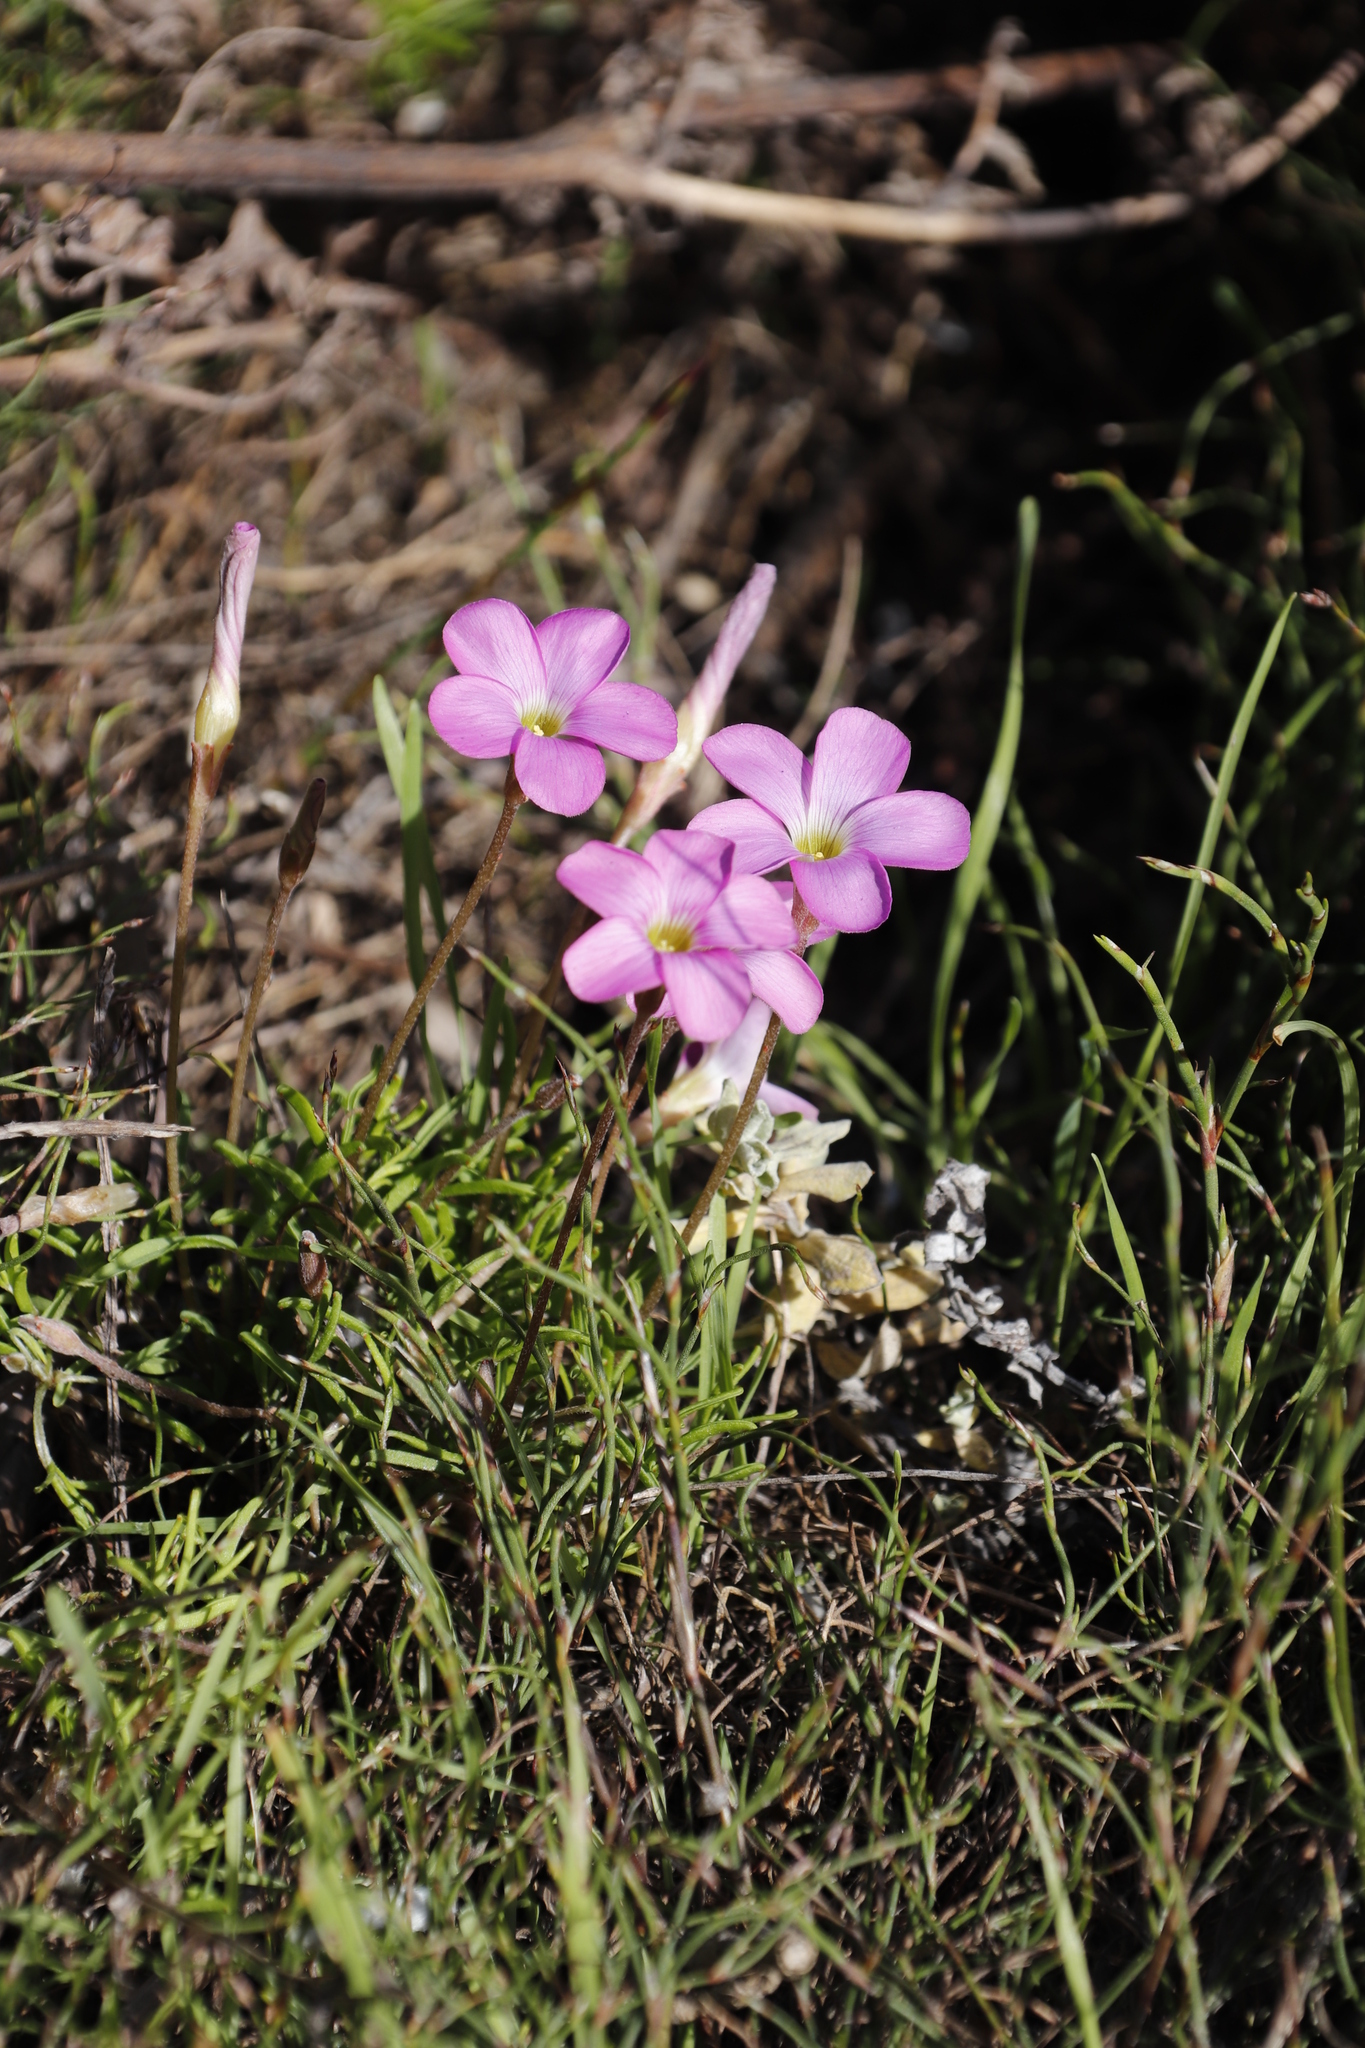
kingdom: Plantae
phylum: Tracheophyta
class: Magnoliopsida
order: Oxalidales
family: Oxalidaceae
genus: Oxalis
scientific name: Oxalis polyphylla
